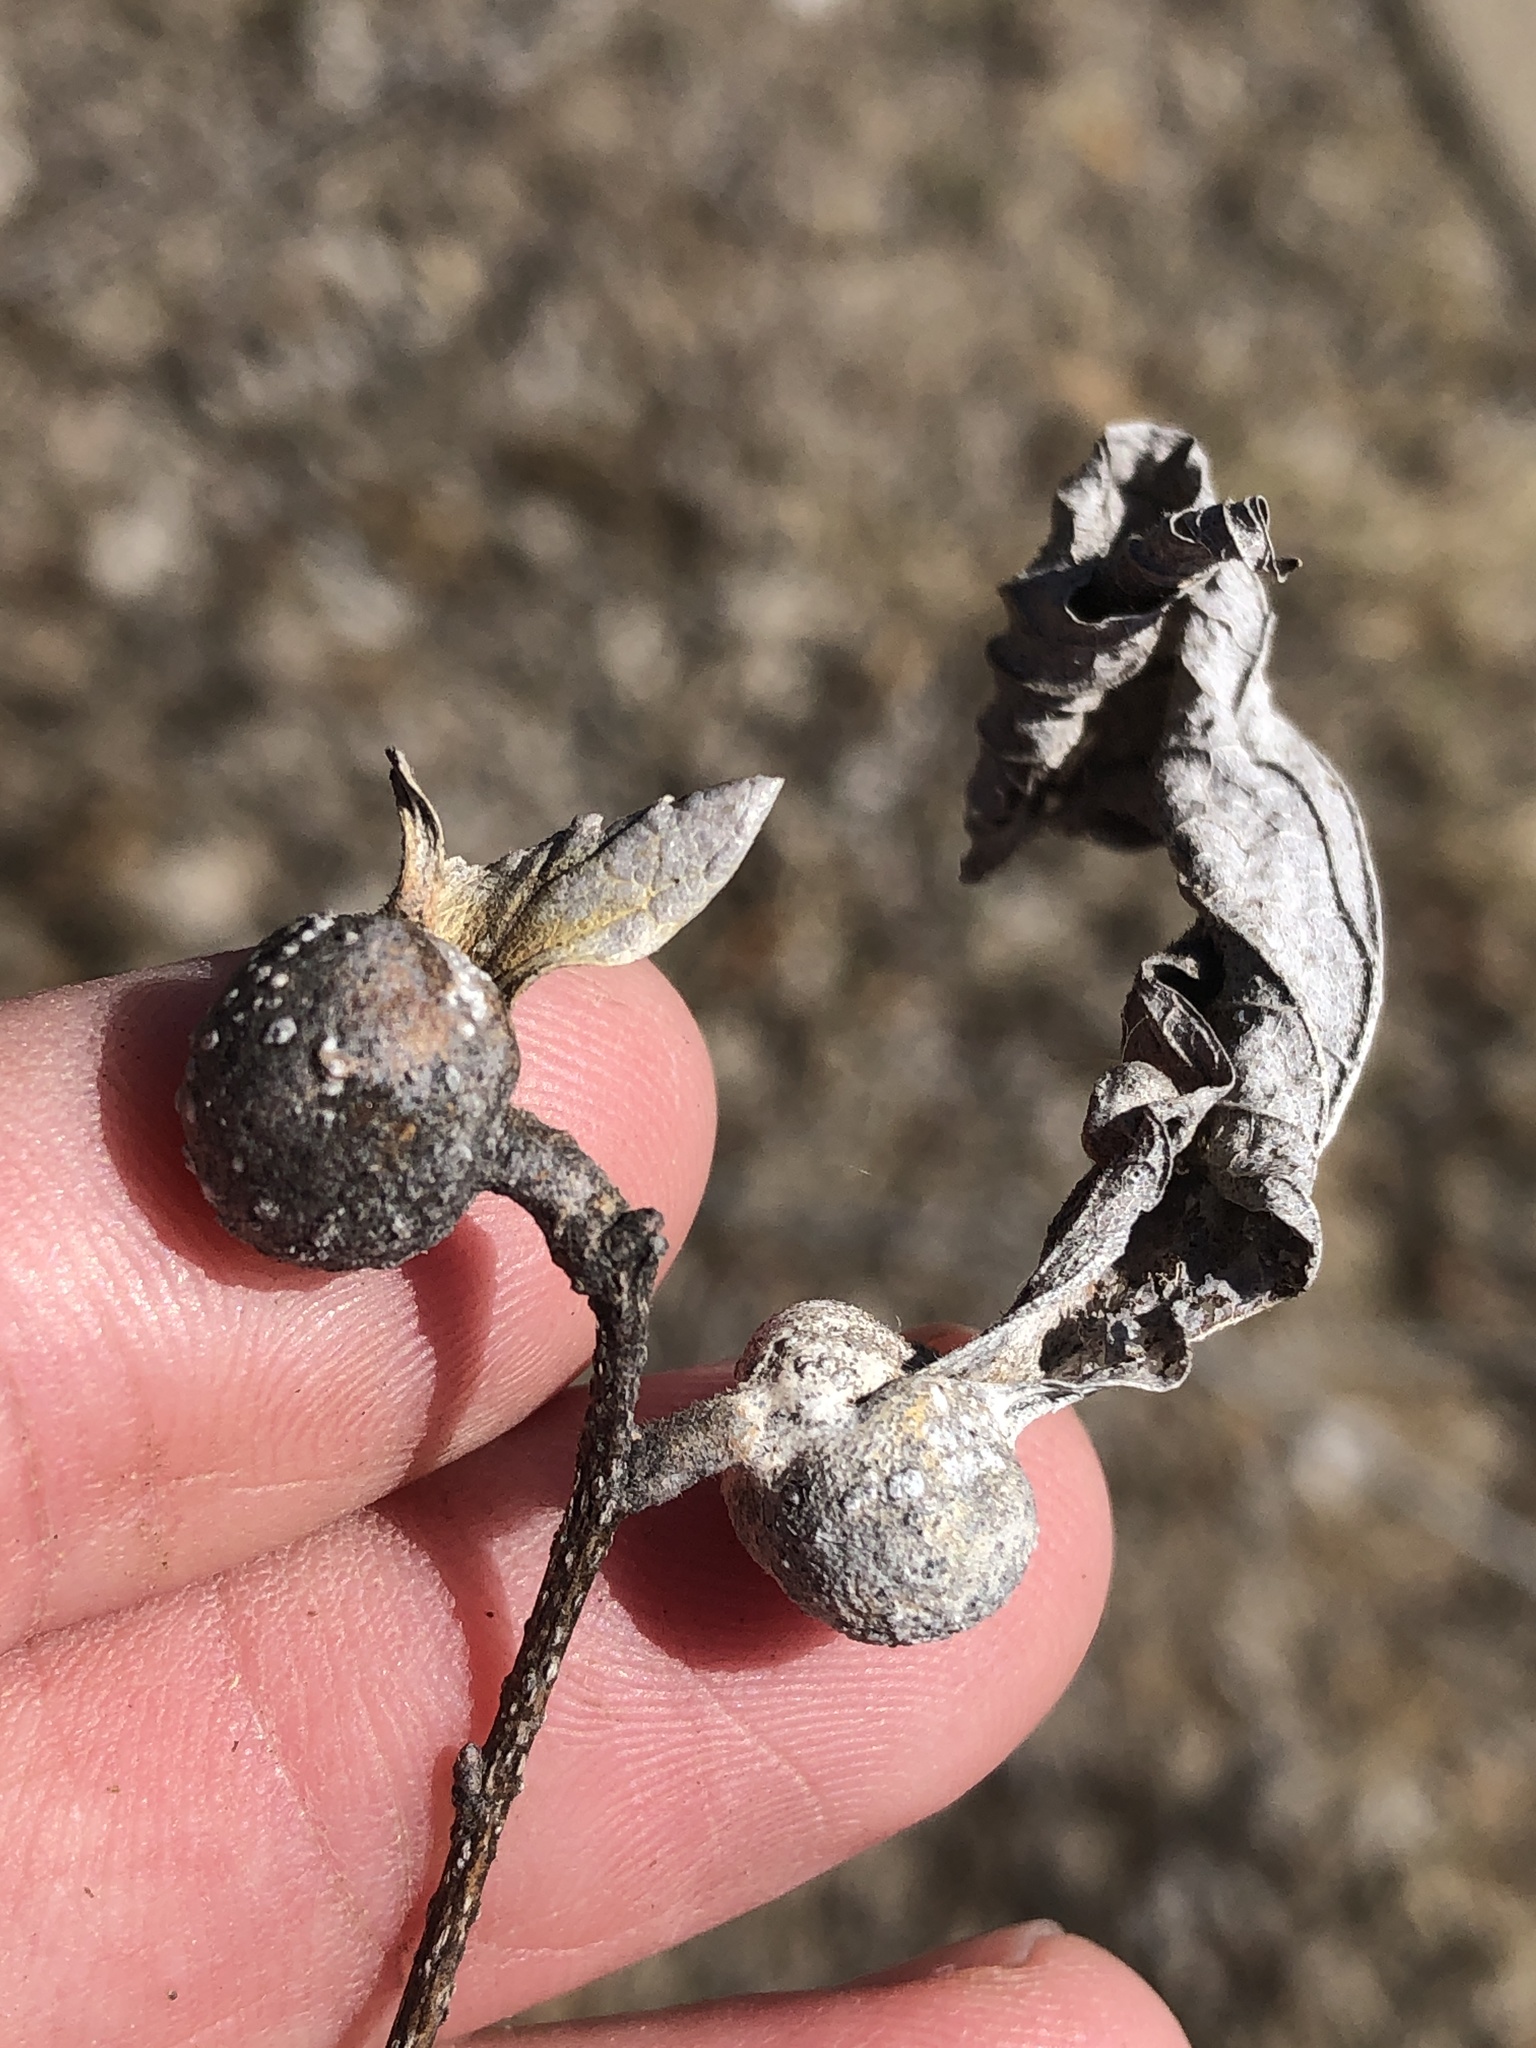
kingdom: Animalia
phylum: Arthropoda
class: Insecta
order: Hemiptera
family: Aphalaridae
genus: Pachypsylla
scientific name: Pachypsylla venusta
